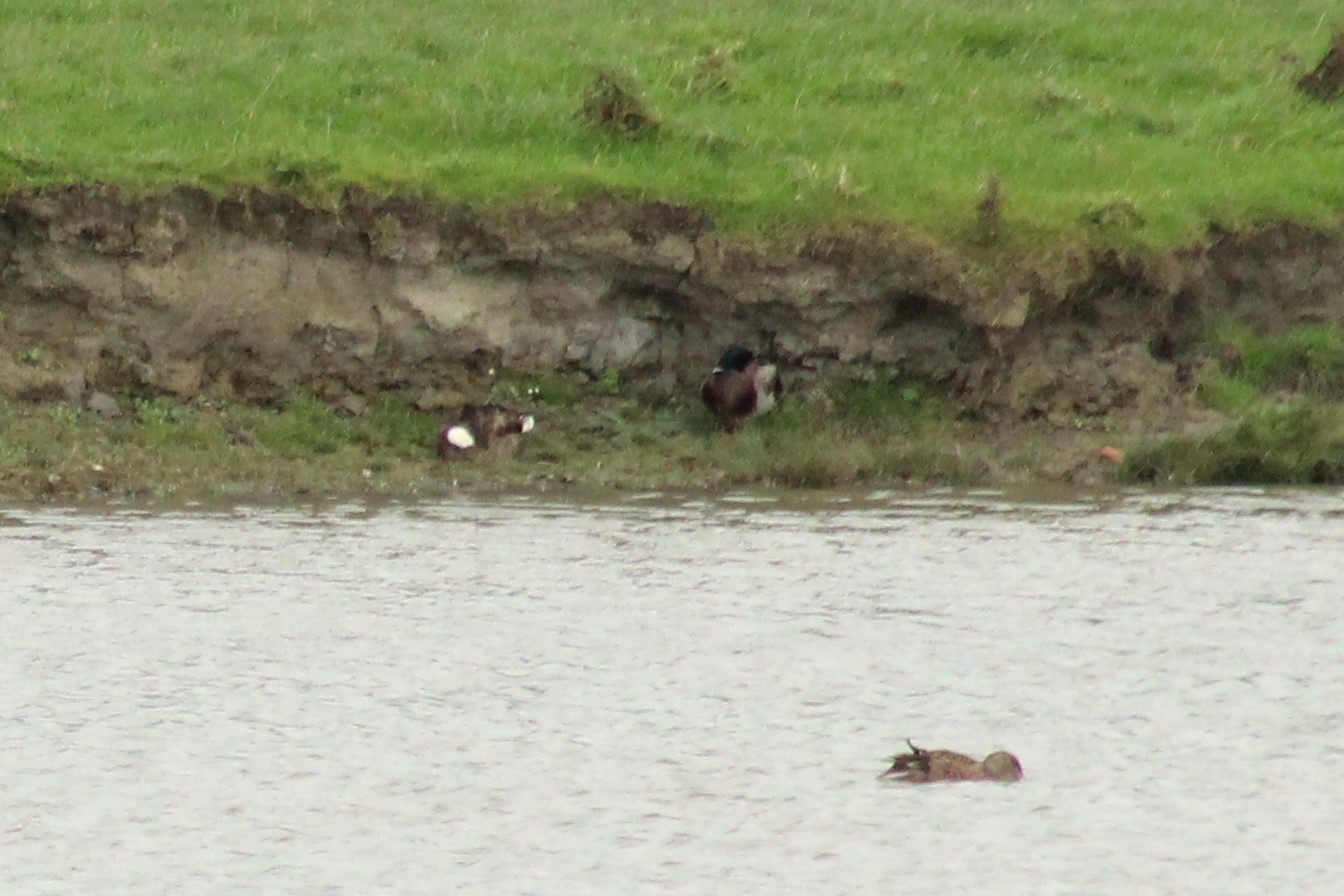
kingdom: Animalia
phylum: Chordata
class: Aves
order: Anseriformes
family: Anatidae
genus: Anas
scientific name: Anas platyrhynchos
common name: Mallard
